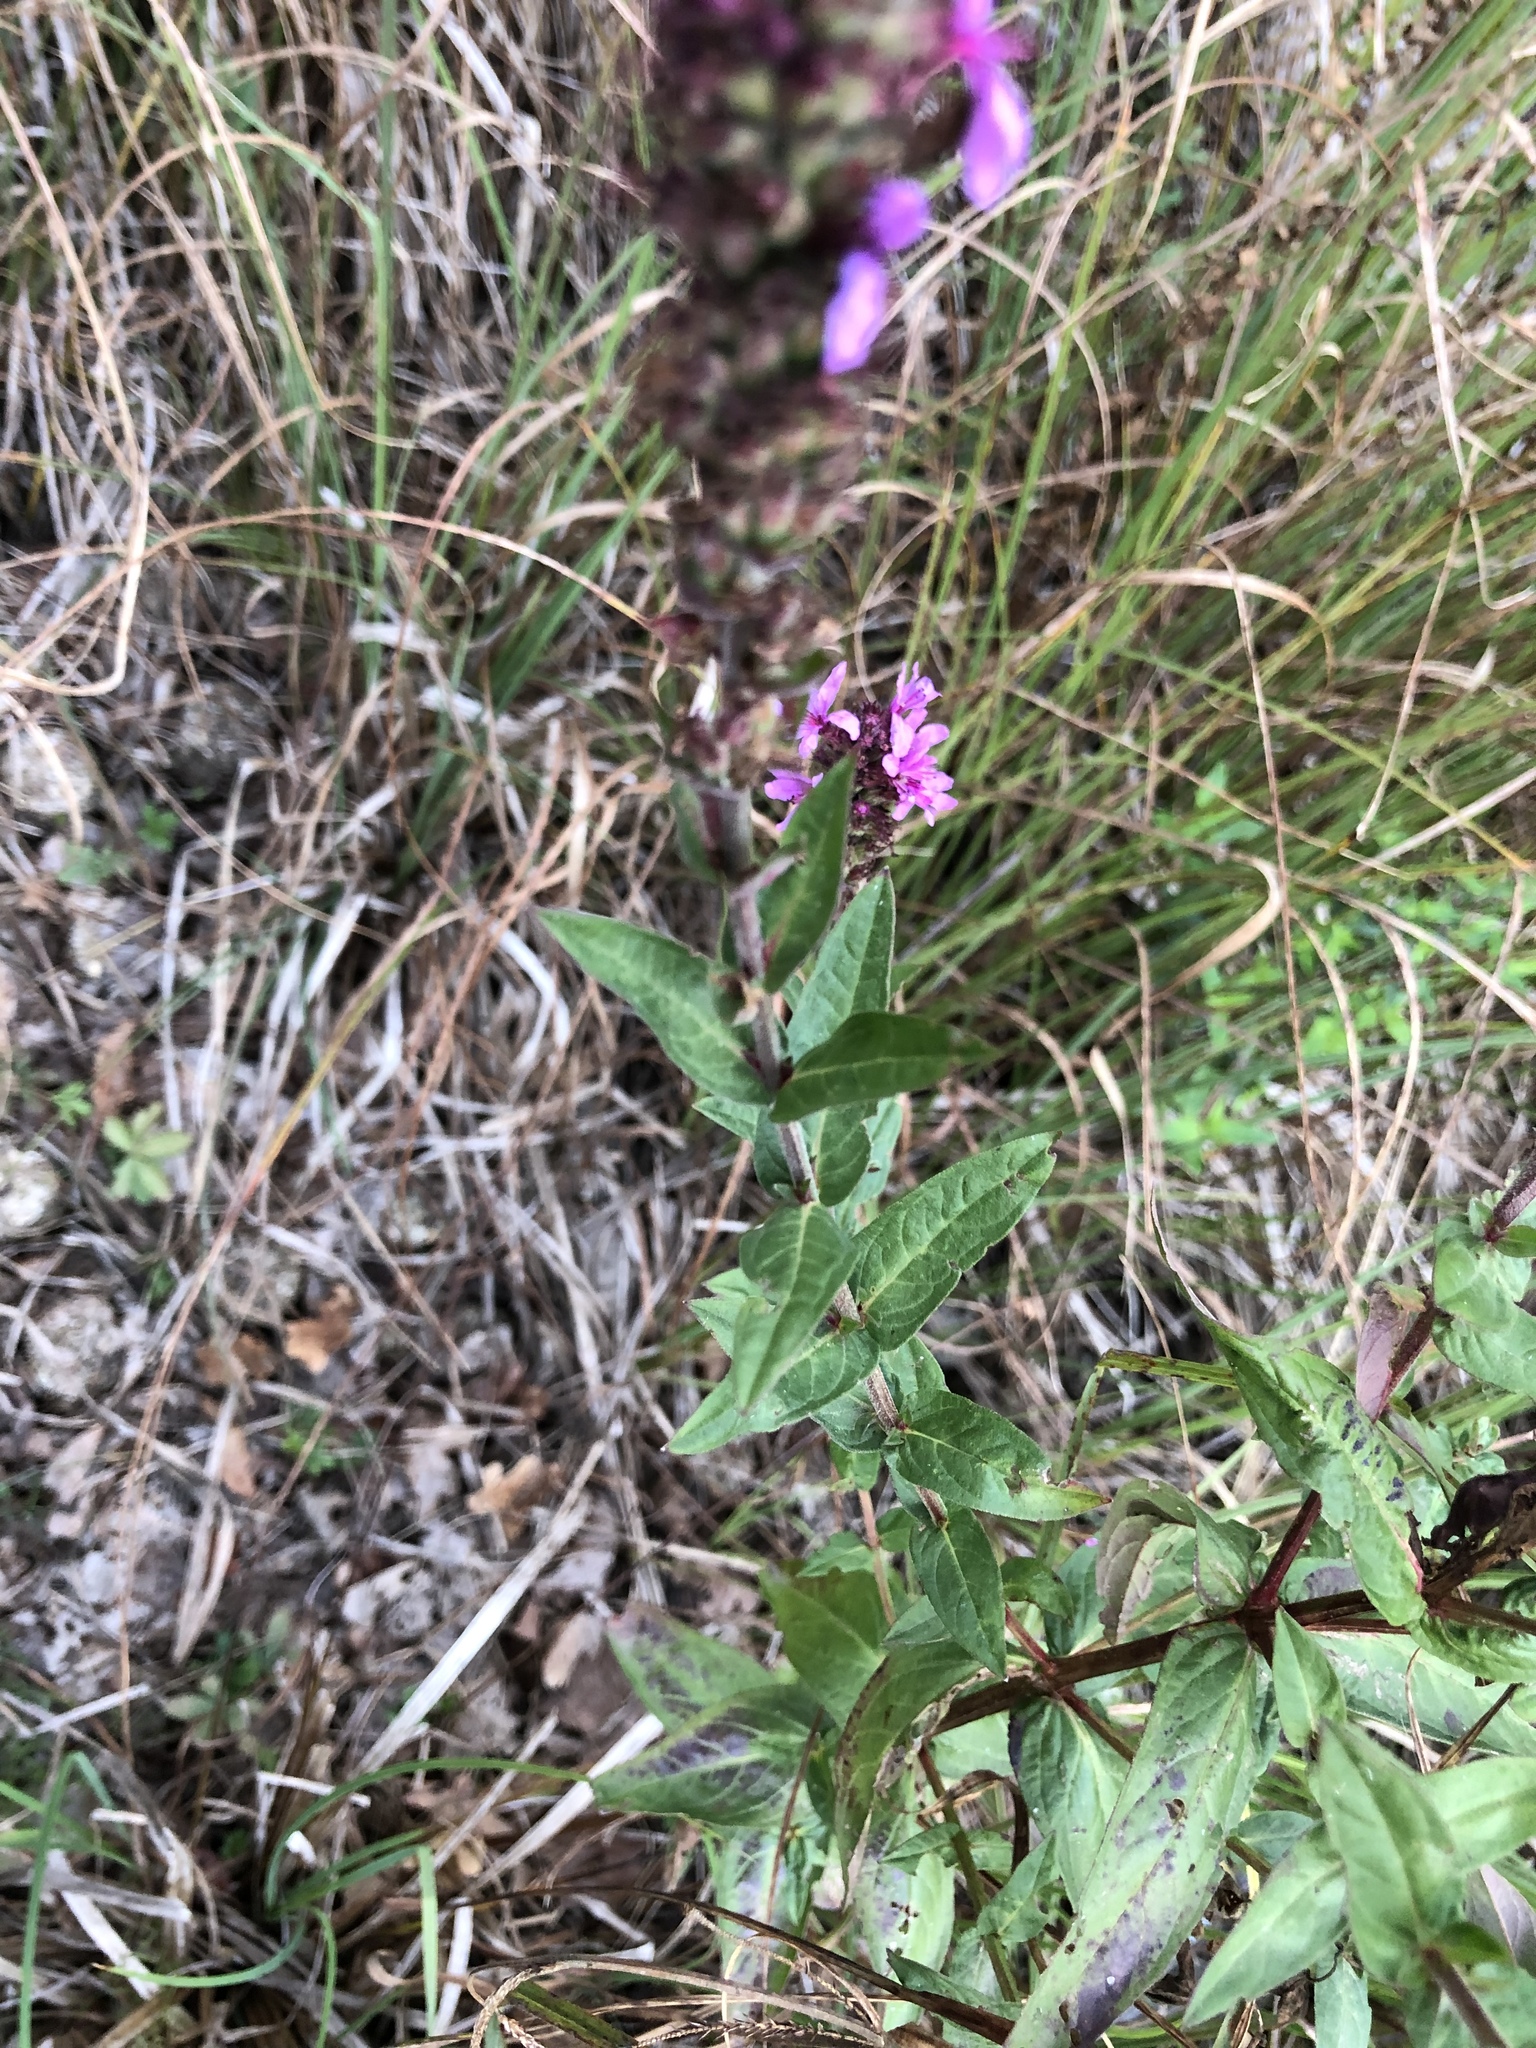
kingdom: Plantae
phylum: Tracheophyta
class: Magnoliopsida
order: Myrtales
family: Lythraceae
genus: Lythrum
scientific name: Lythrum salicaria
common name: Purple loosestrife
